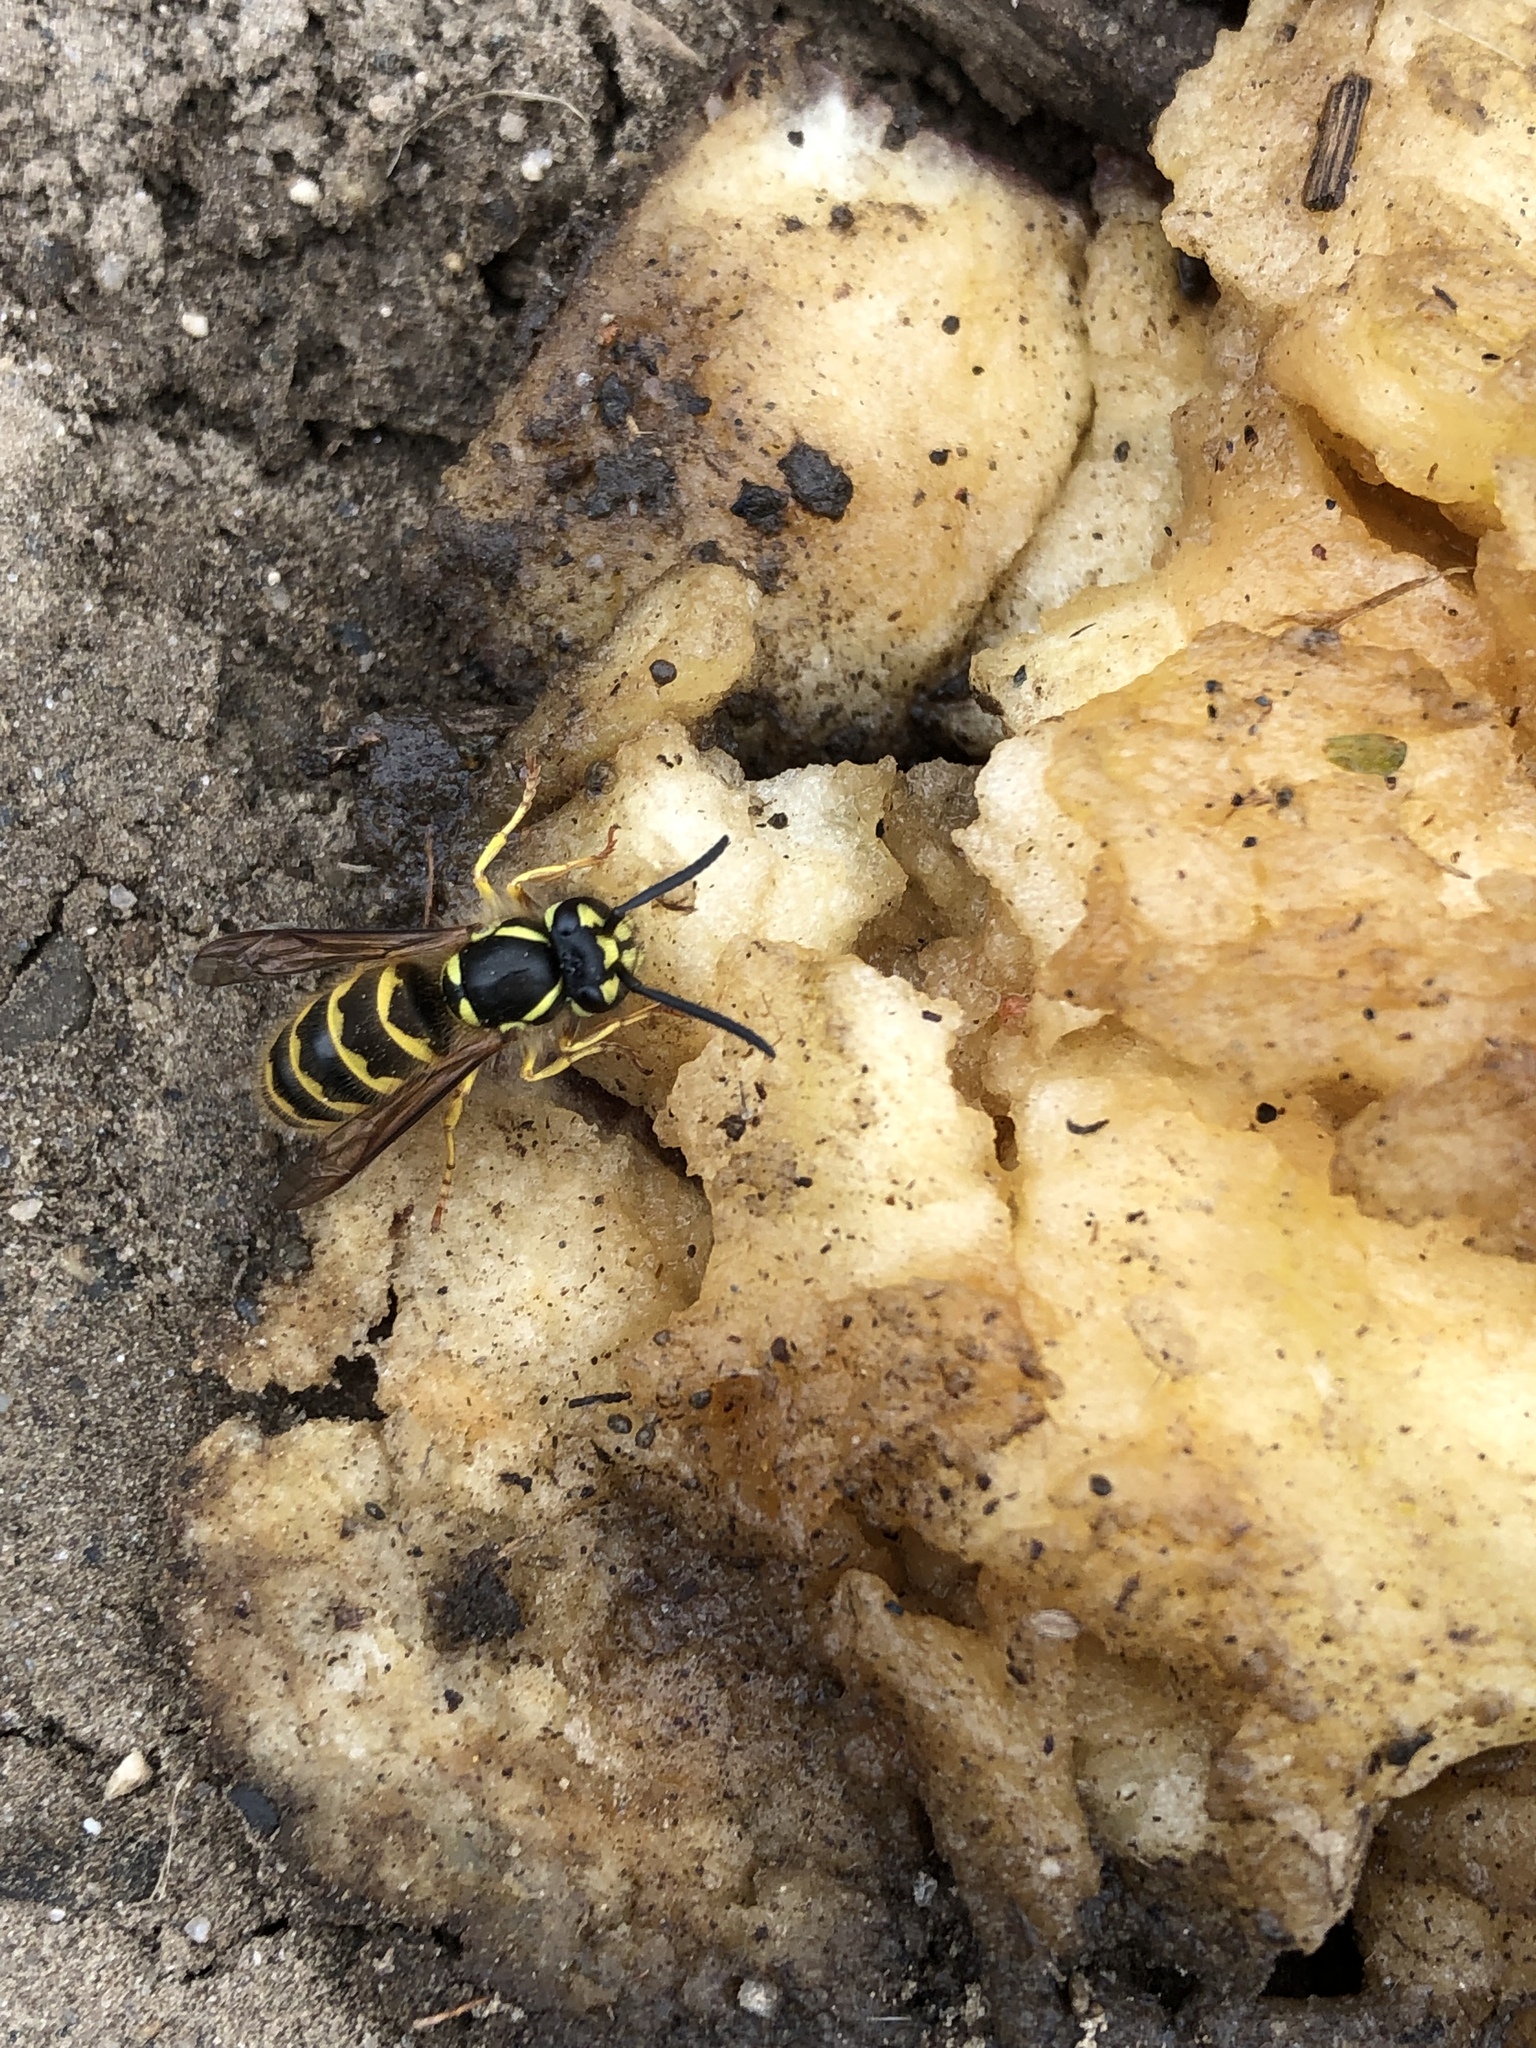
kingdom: Animalia
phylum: Arthropoda
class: Insecta
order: Hymenoptera
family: Vespidae
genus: Vespula
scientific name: Vespula flavopilosa
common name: Downy yellowjacket
